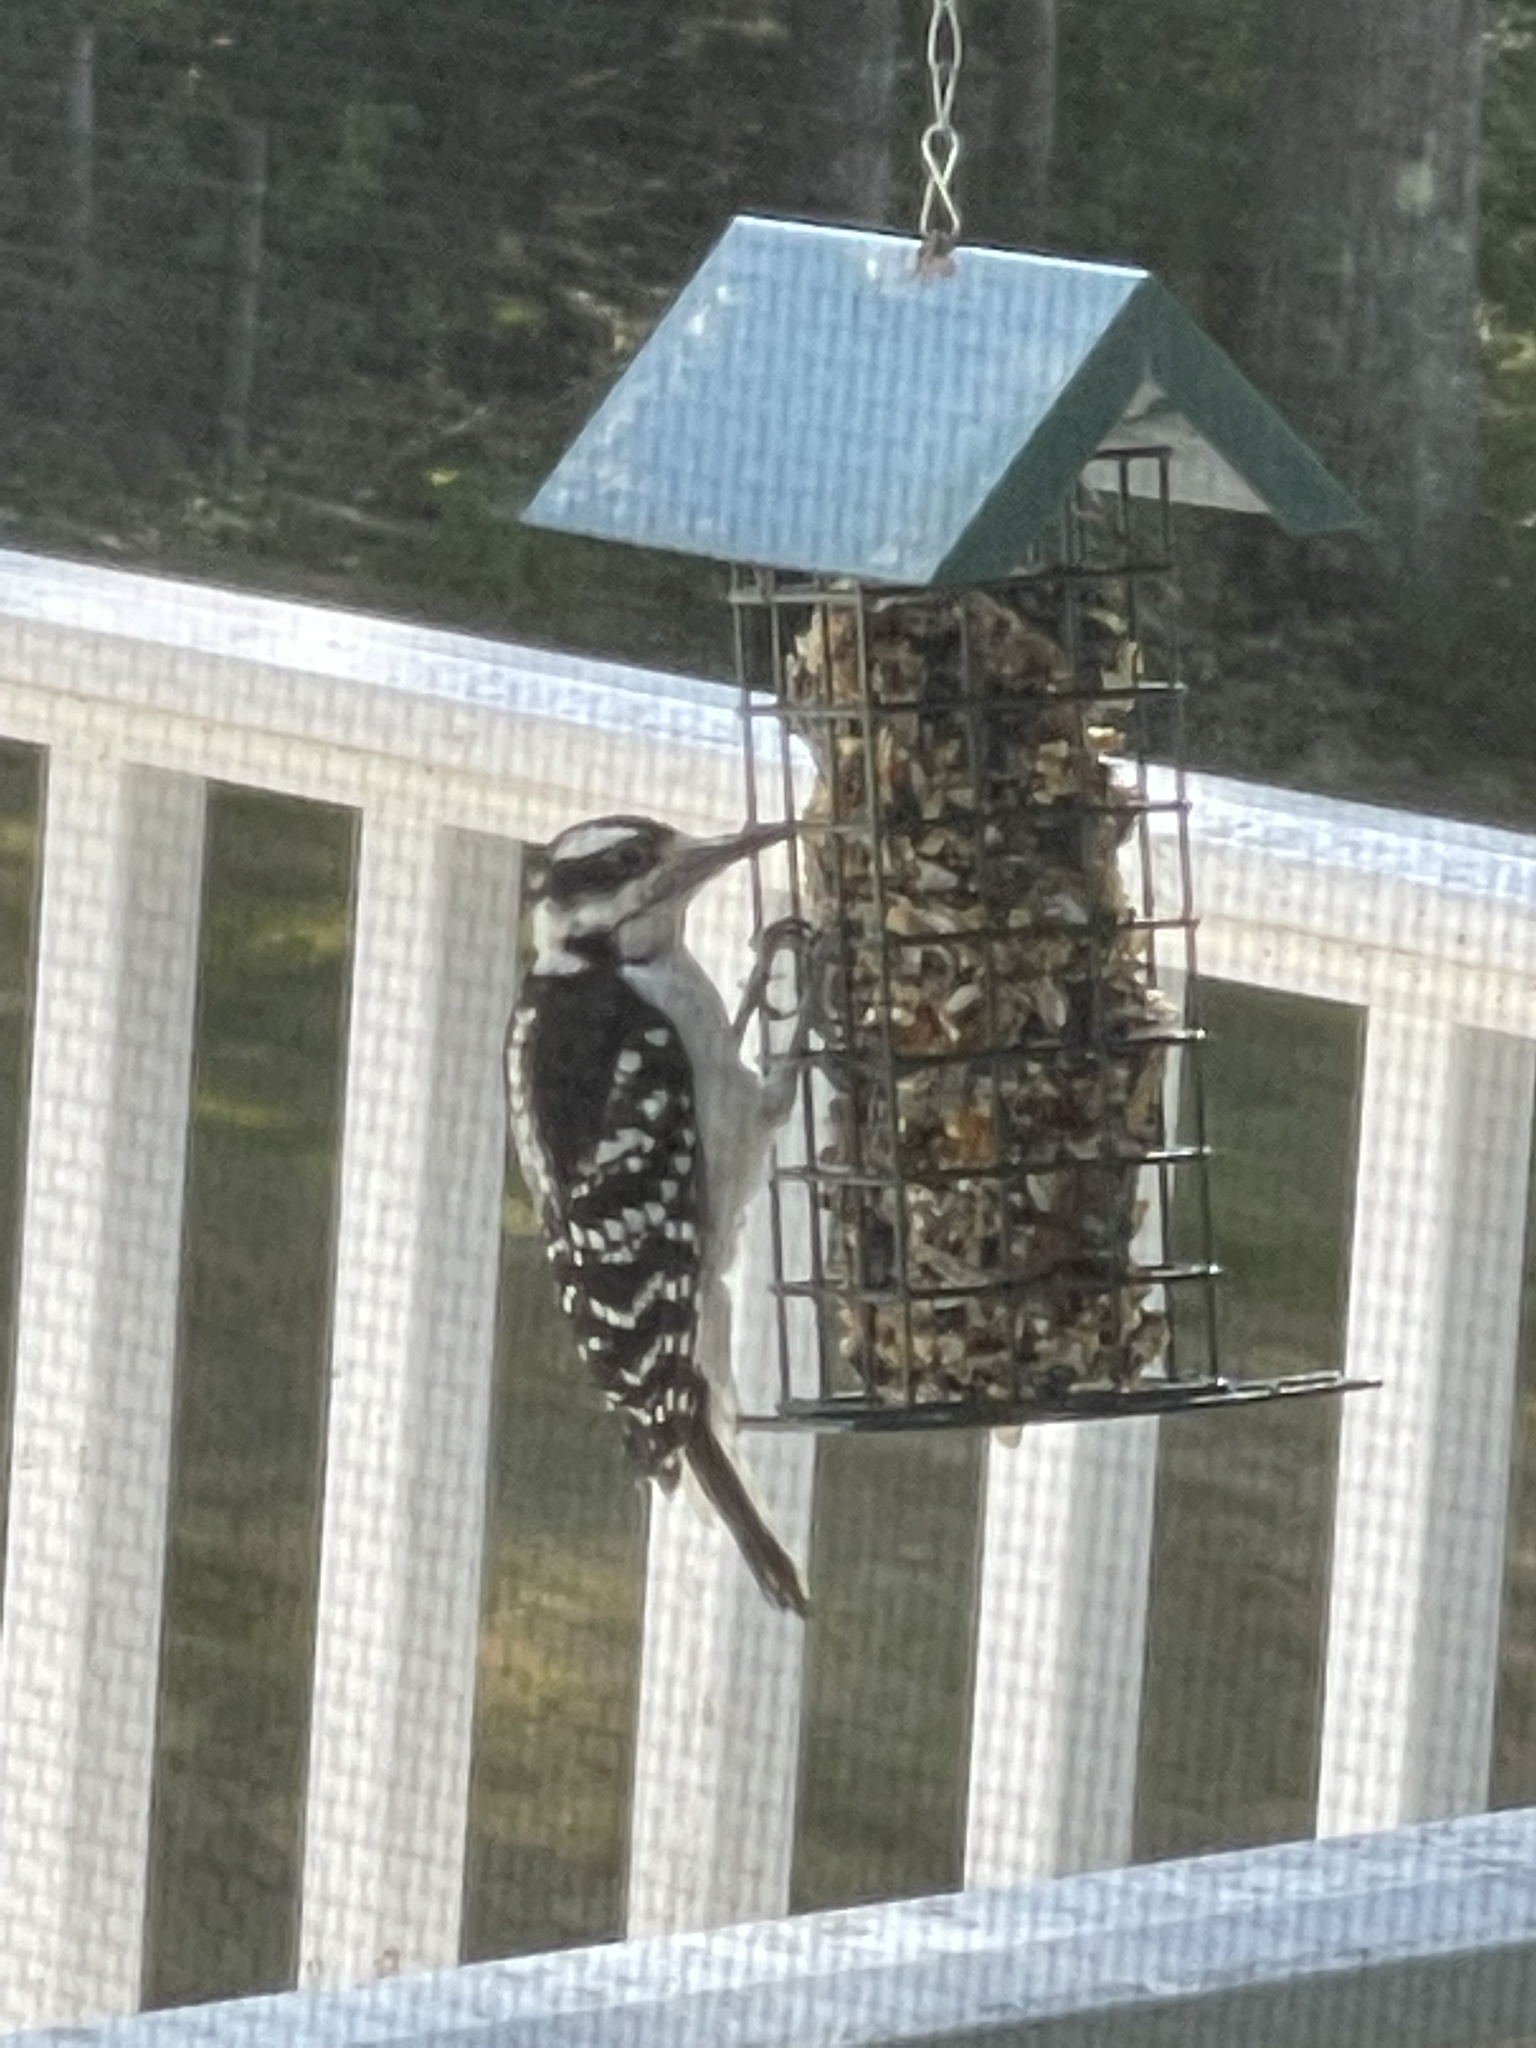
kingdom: Animalia
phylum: Chordata
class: Aves
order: Piciformes
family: Picidae
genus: Leuconotopicus
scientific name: Leuconotopicus villosus
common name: Hairy woodpecker
